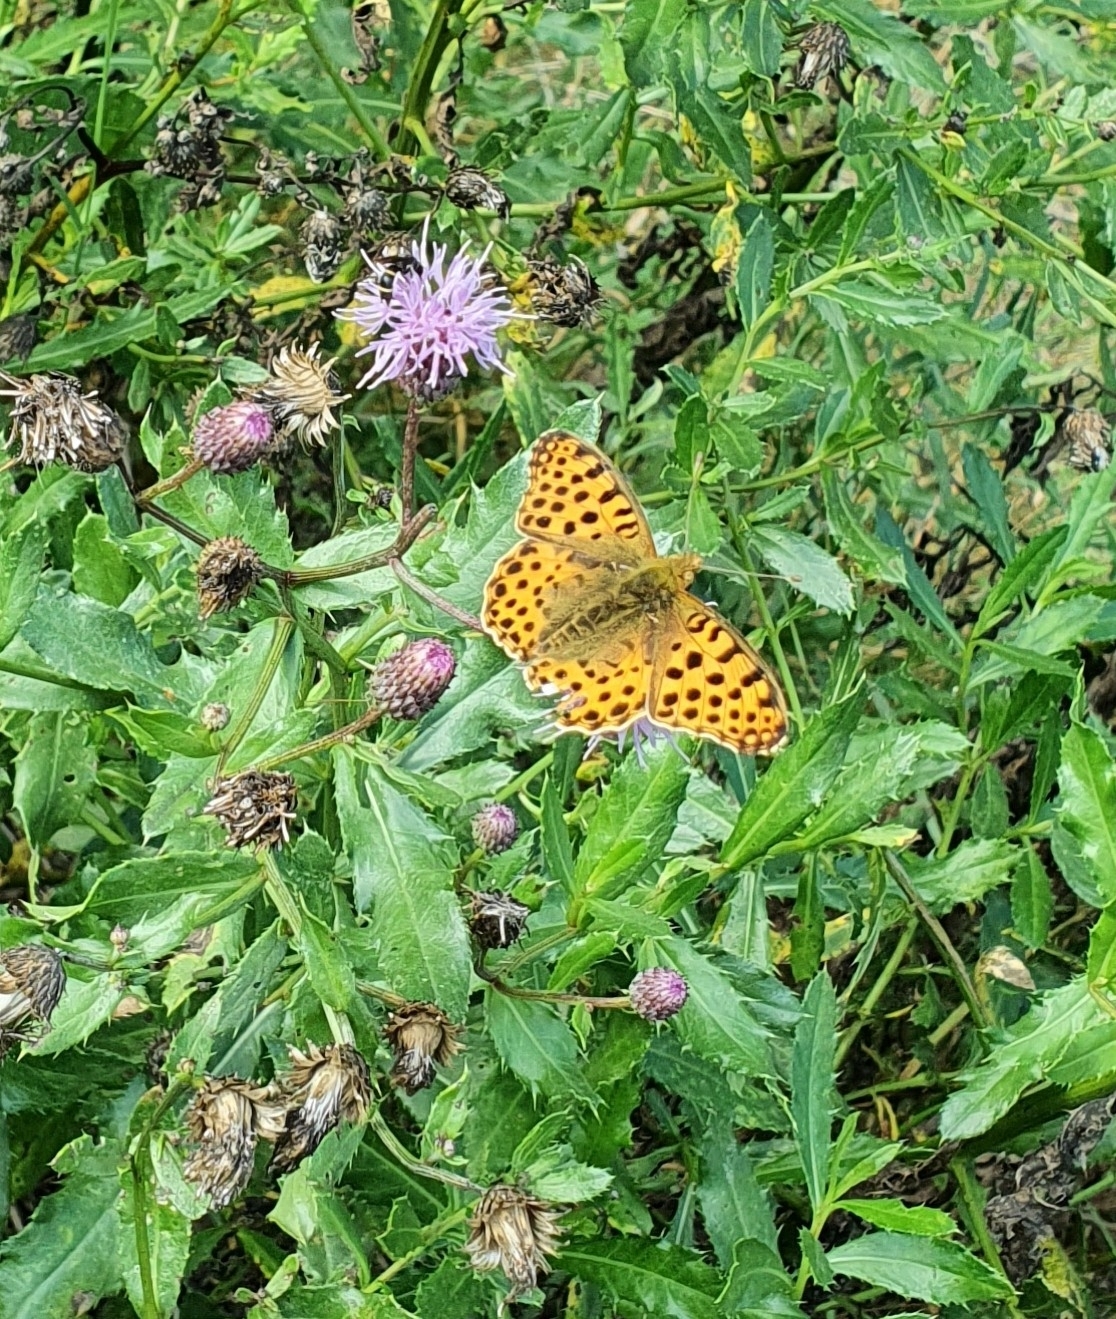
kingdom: Animalia
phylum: Arthropoda
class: Insecta
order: Lepidoptera
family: Nymphalidae
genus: Issoria
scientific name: Issoria lathonia
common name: Queen of spain fritillary
